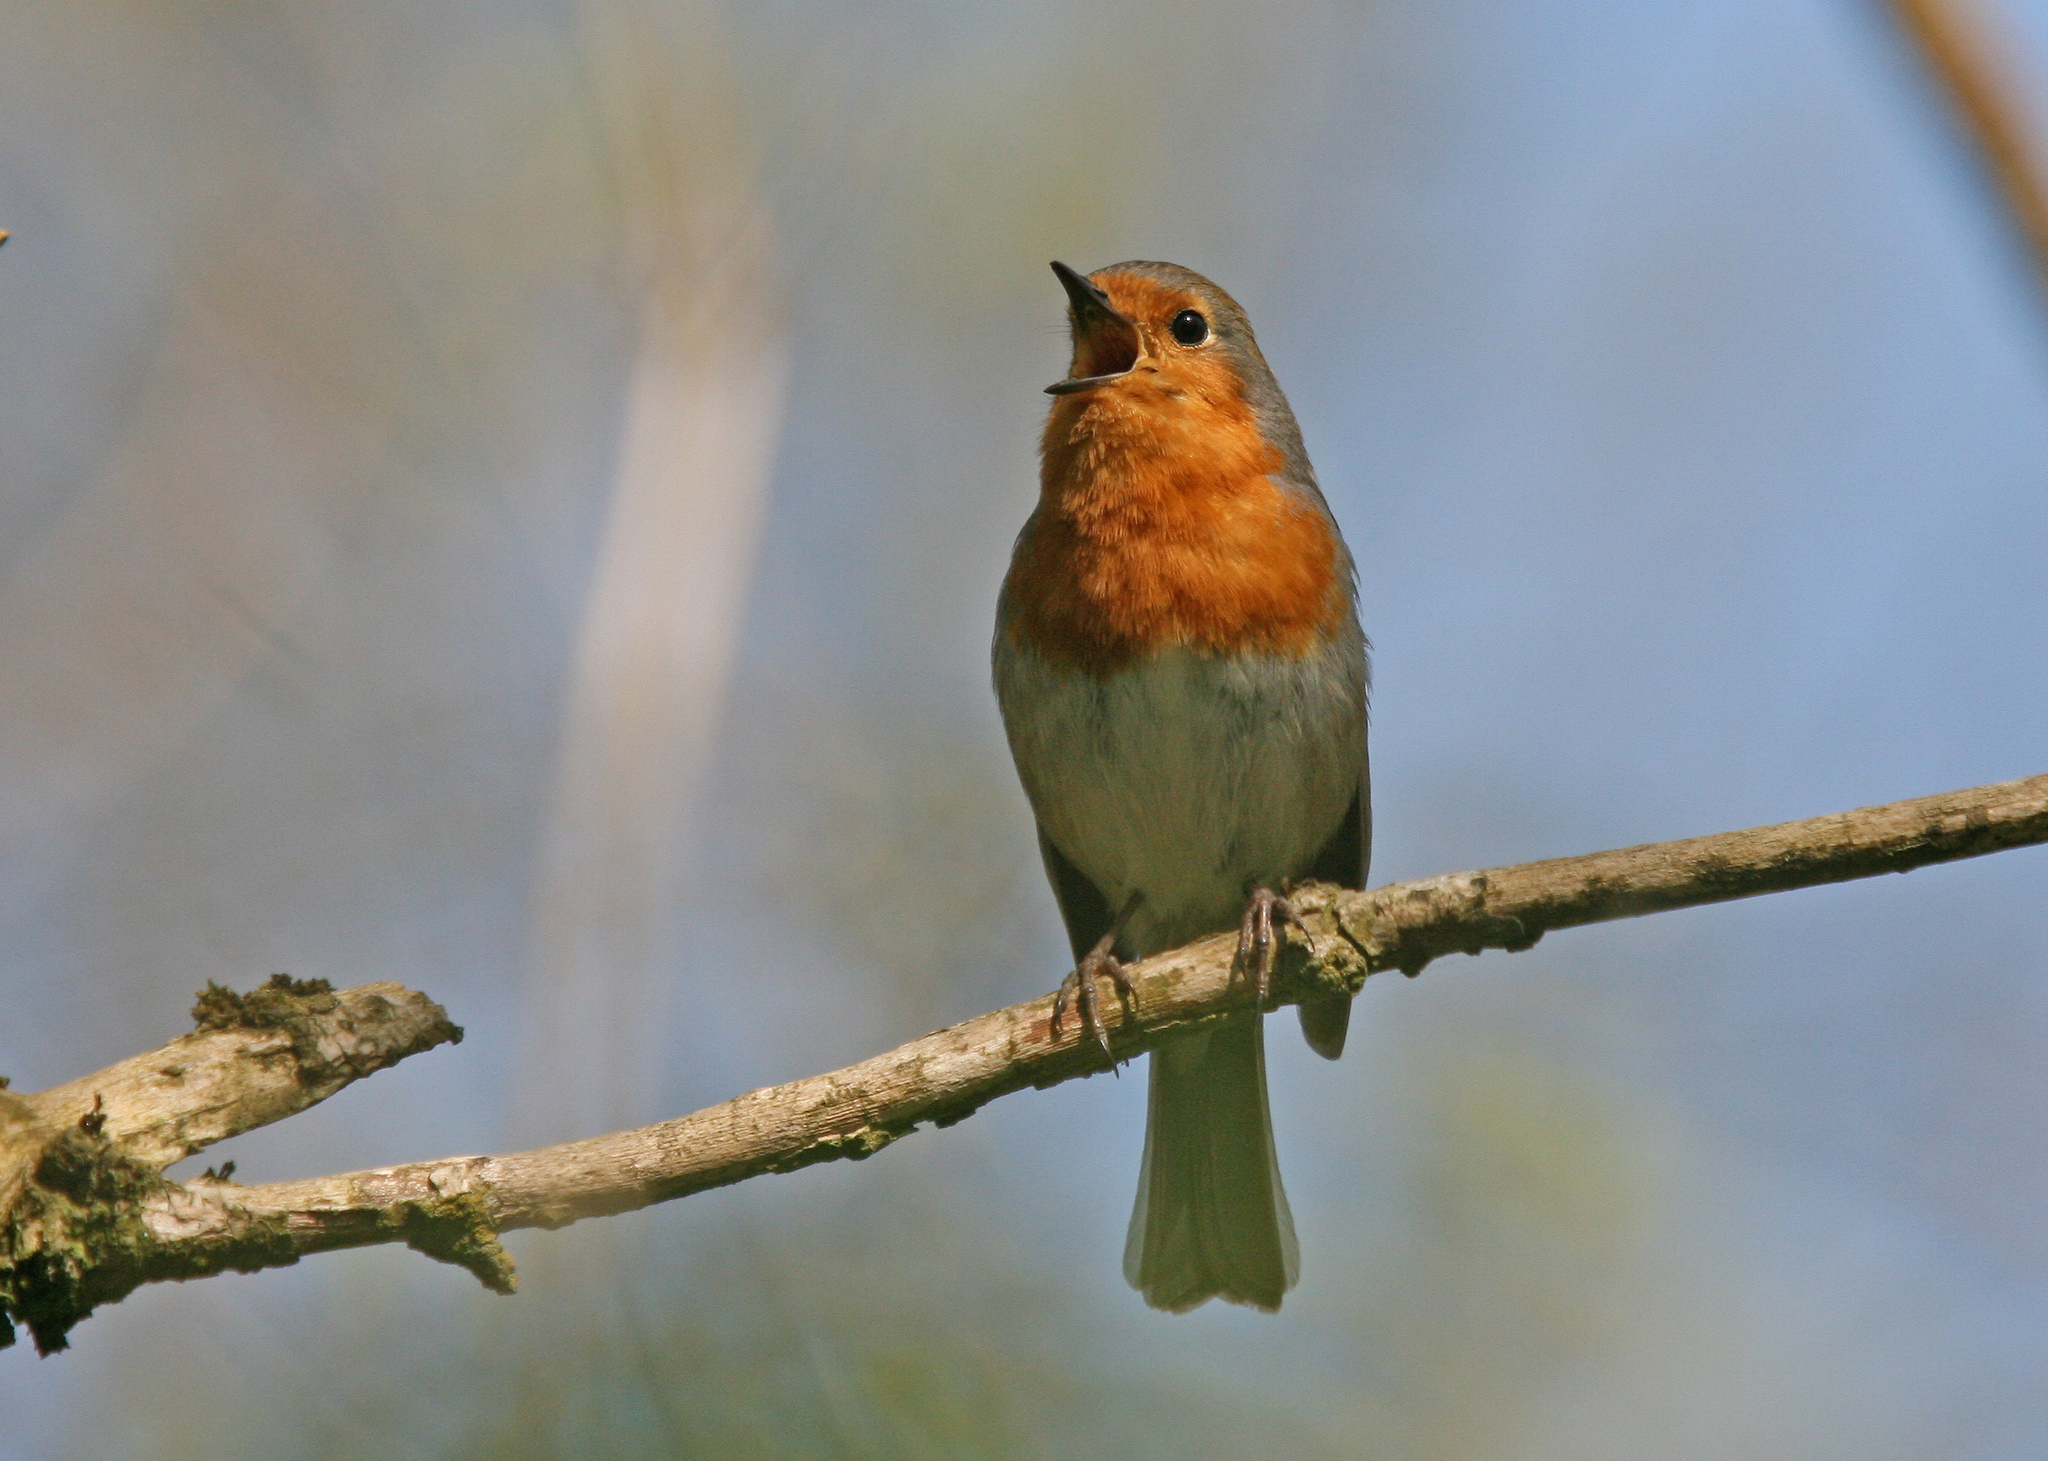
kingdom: Animalia
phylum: Chordata
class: Aves
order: Passeriformes
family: Muscicapidae
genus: Erithacus
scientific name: Erithacus rubecula
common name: European robin
